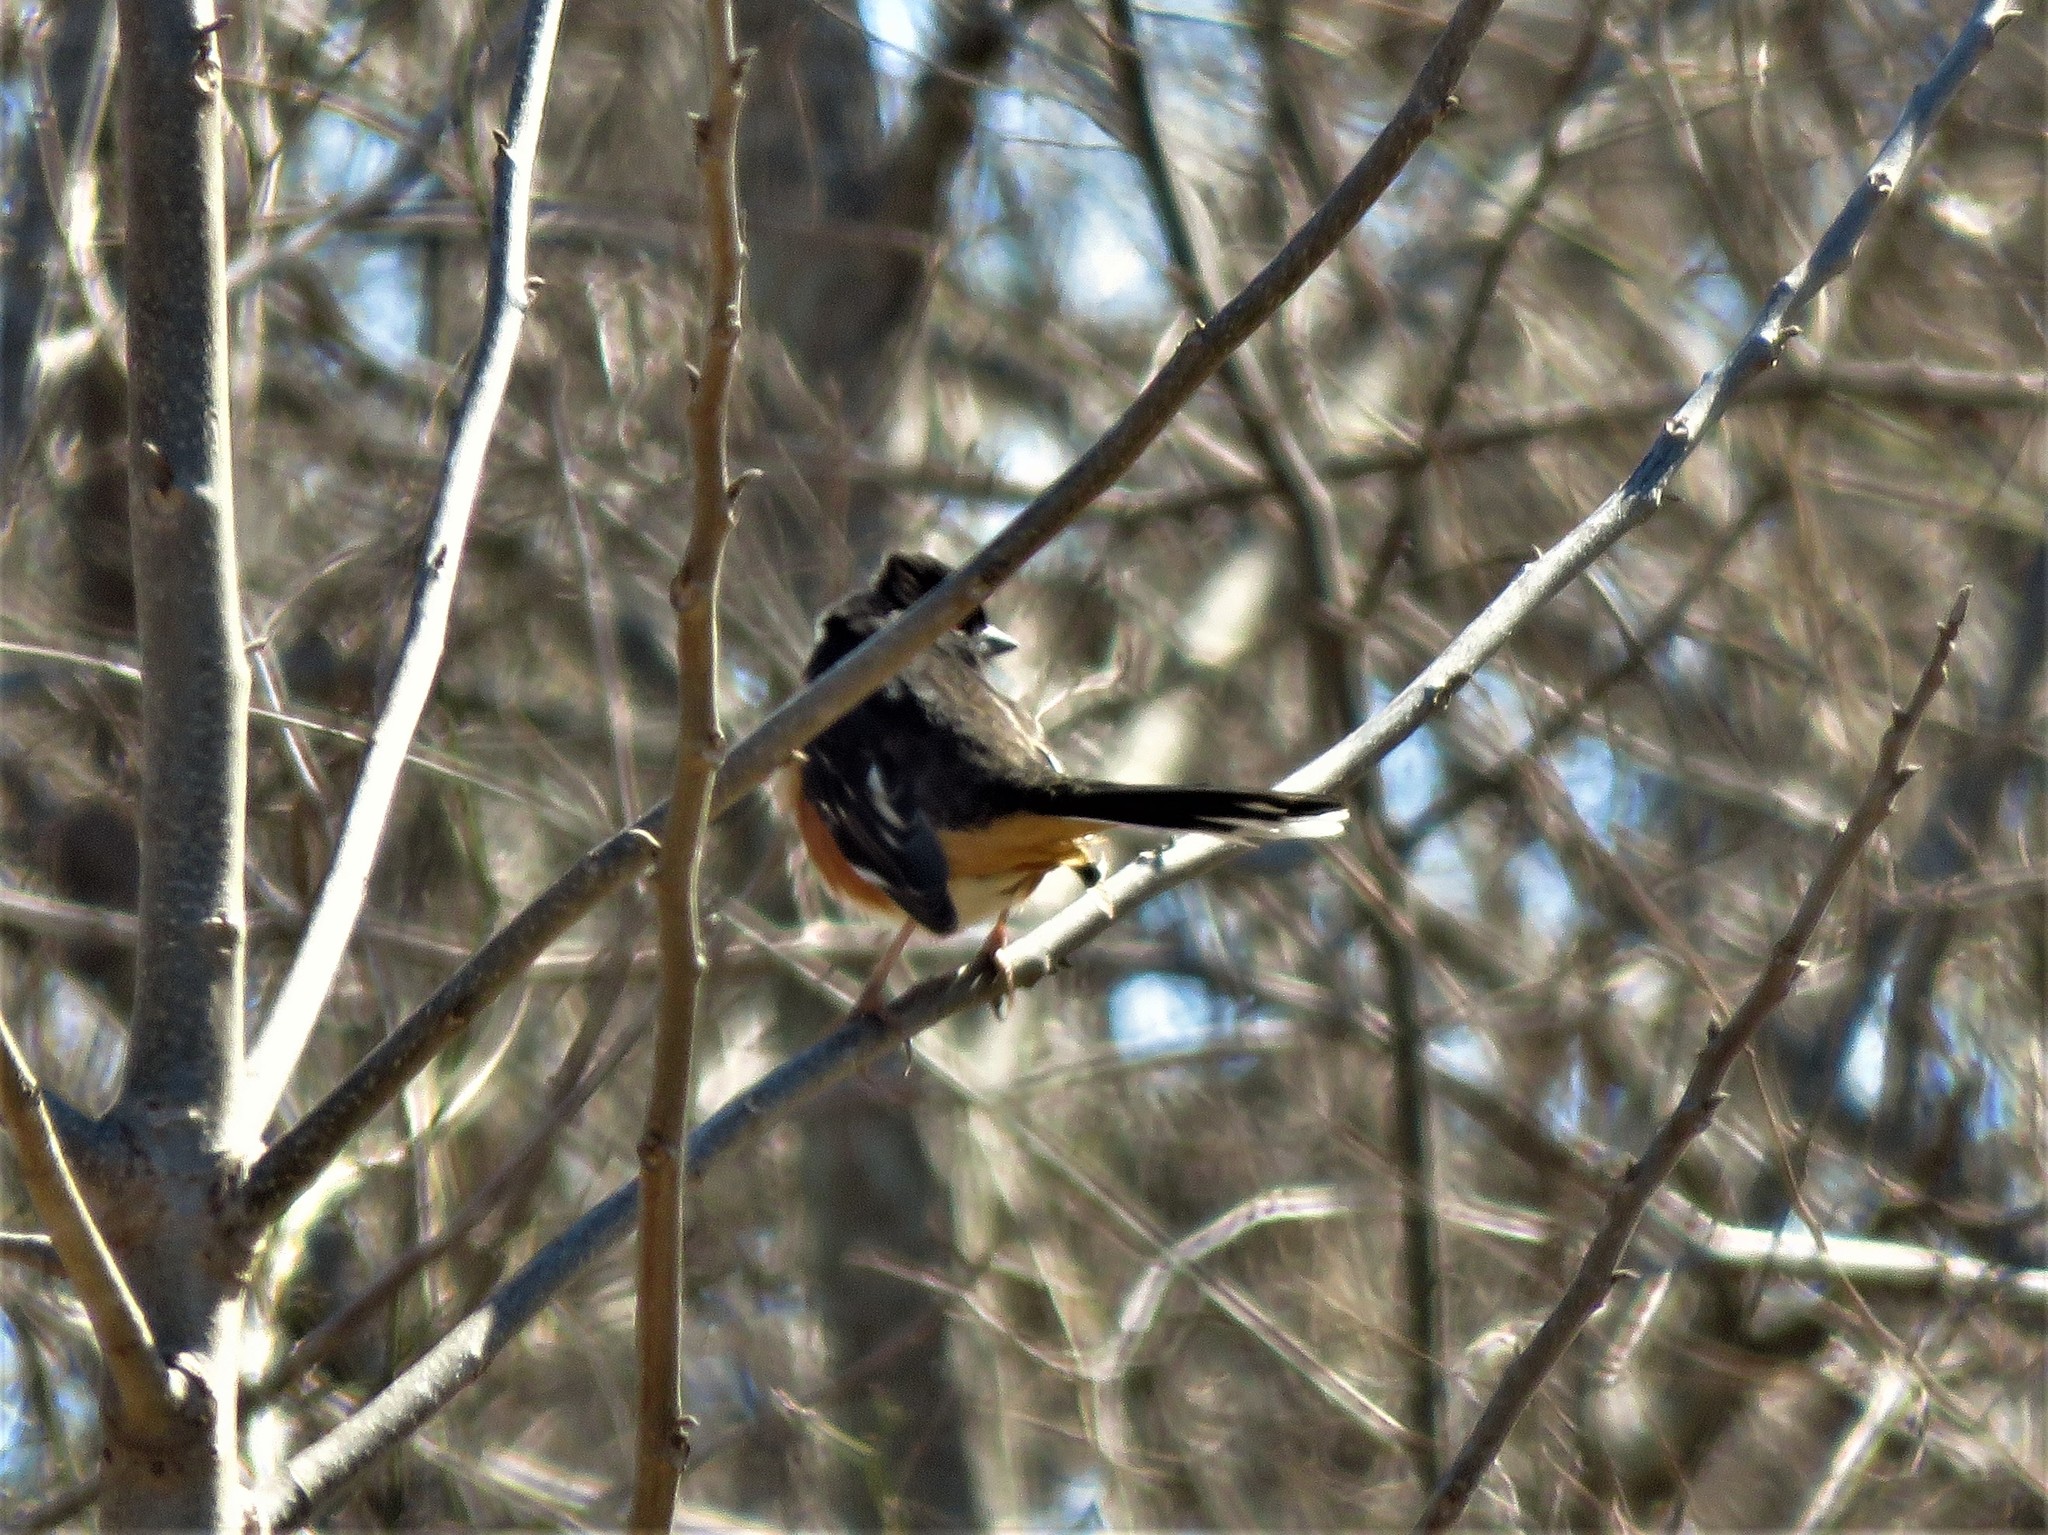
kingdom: Animalia
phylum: Chordata
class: Aves
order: Passeriformes
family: Passerellidae
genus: Pipilo
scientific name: Pipilo
